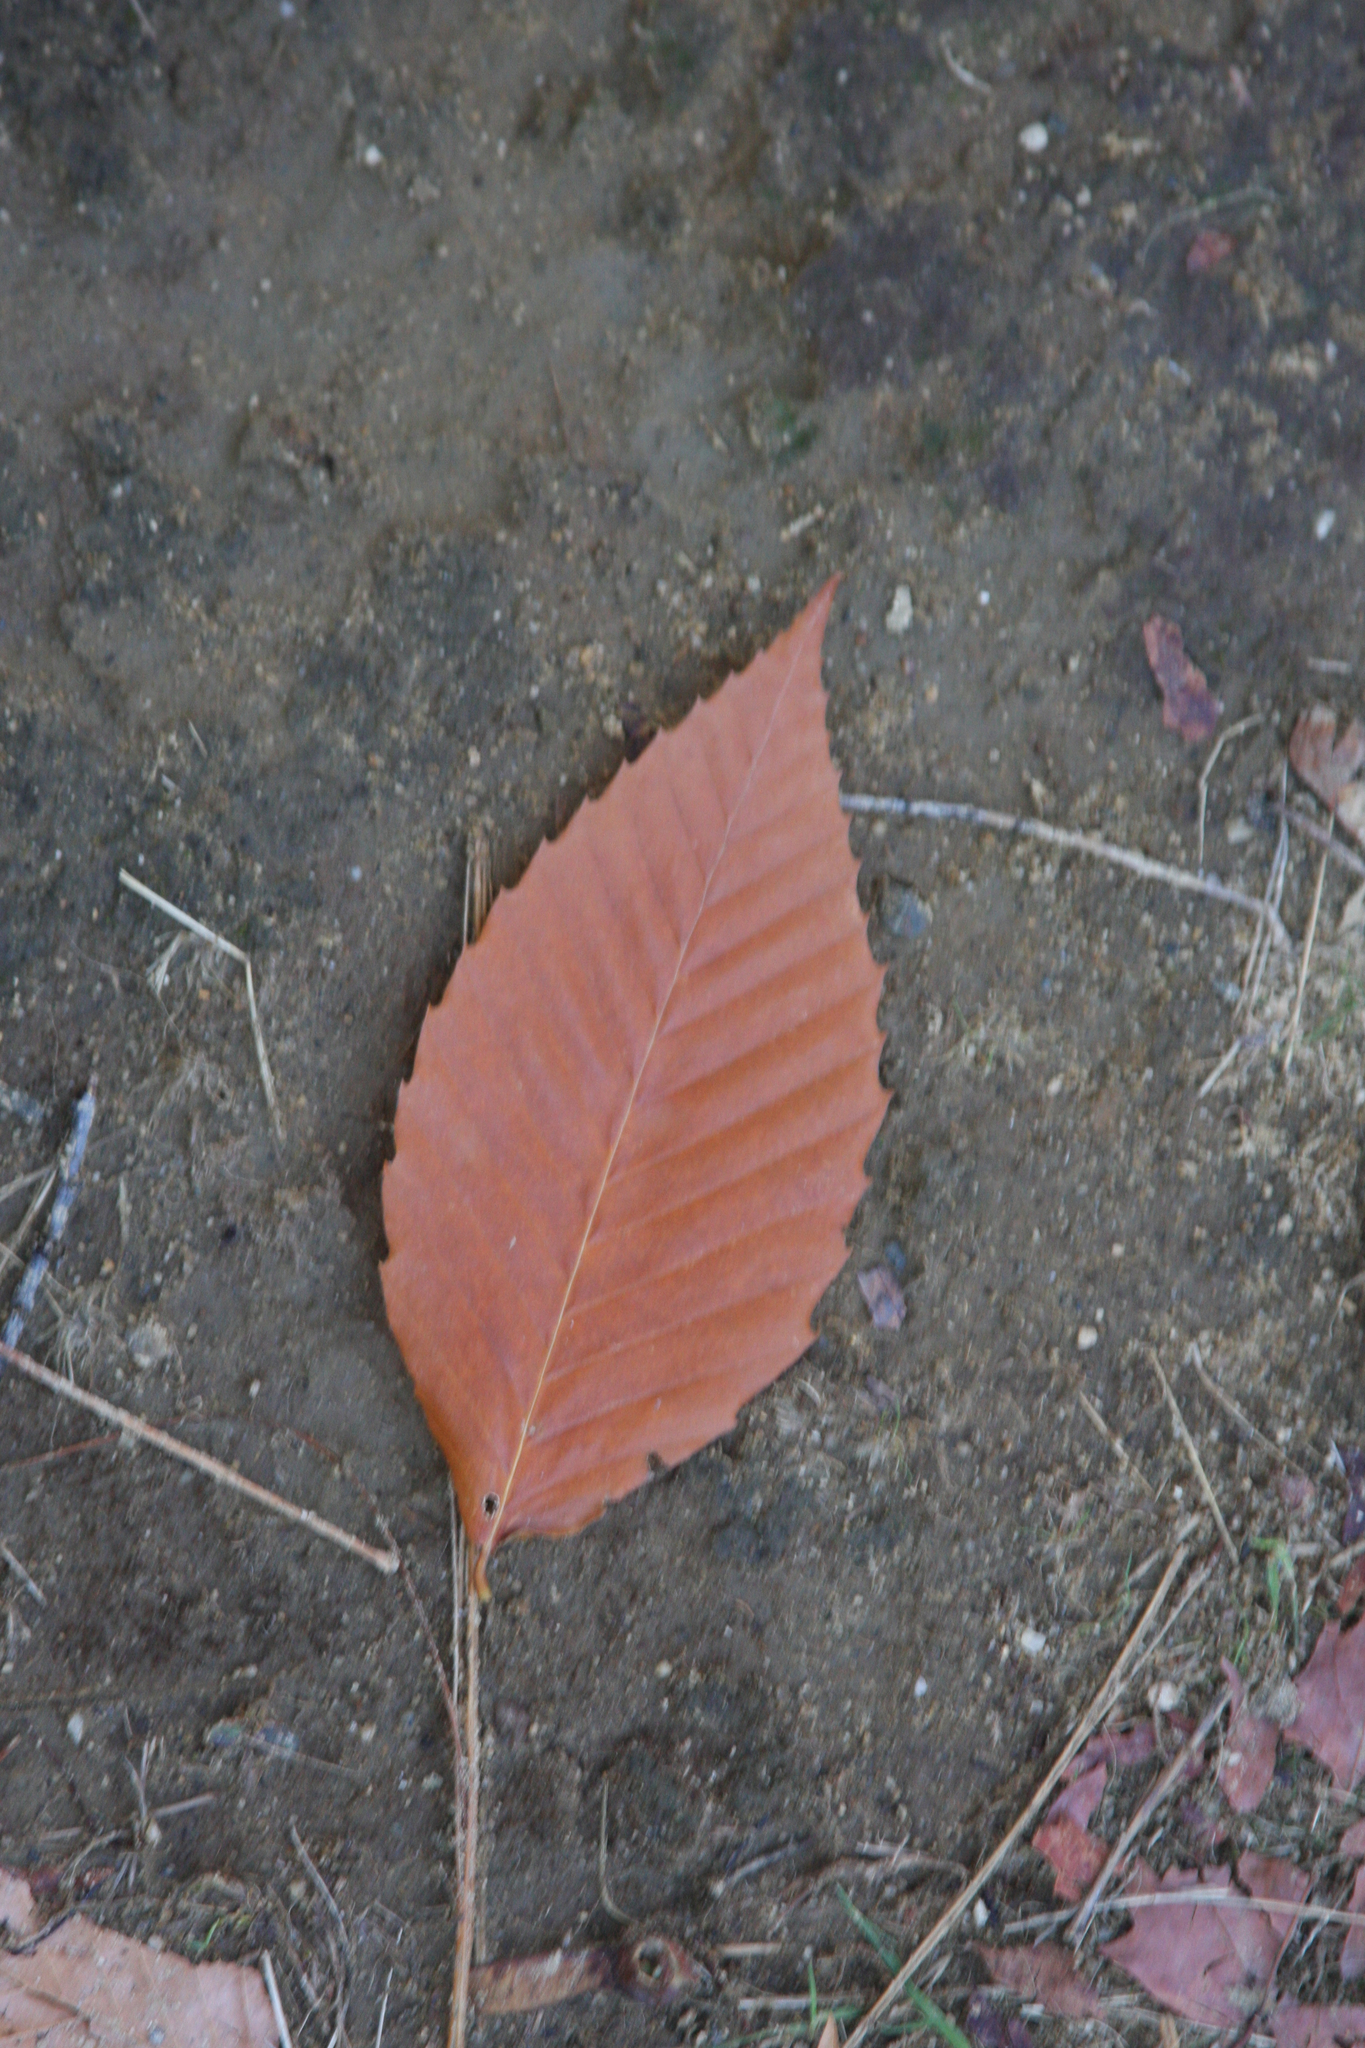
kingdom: Plantae
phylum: Tracheophyta
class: Magnoliopsida
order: Fagales
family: Fagaceae
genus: Fagus
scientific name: Fagus grandifolia
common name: American beech
